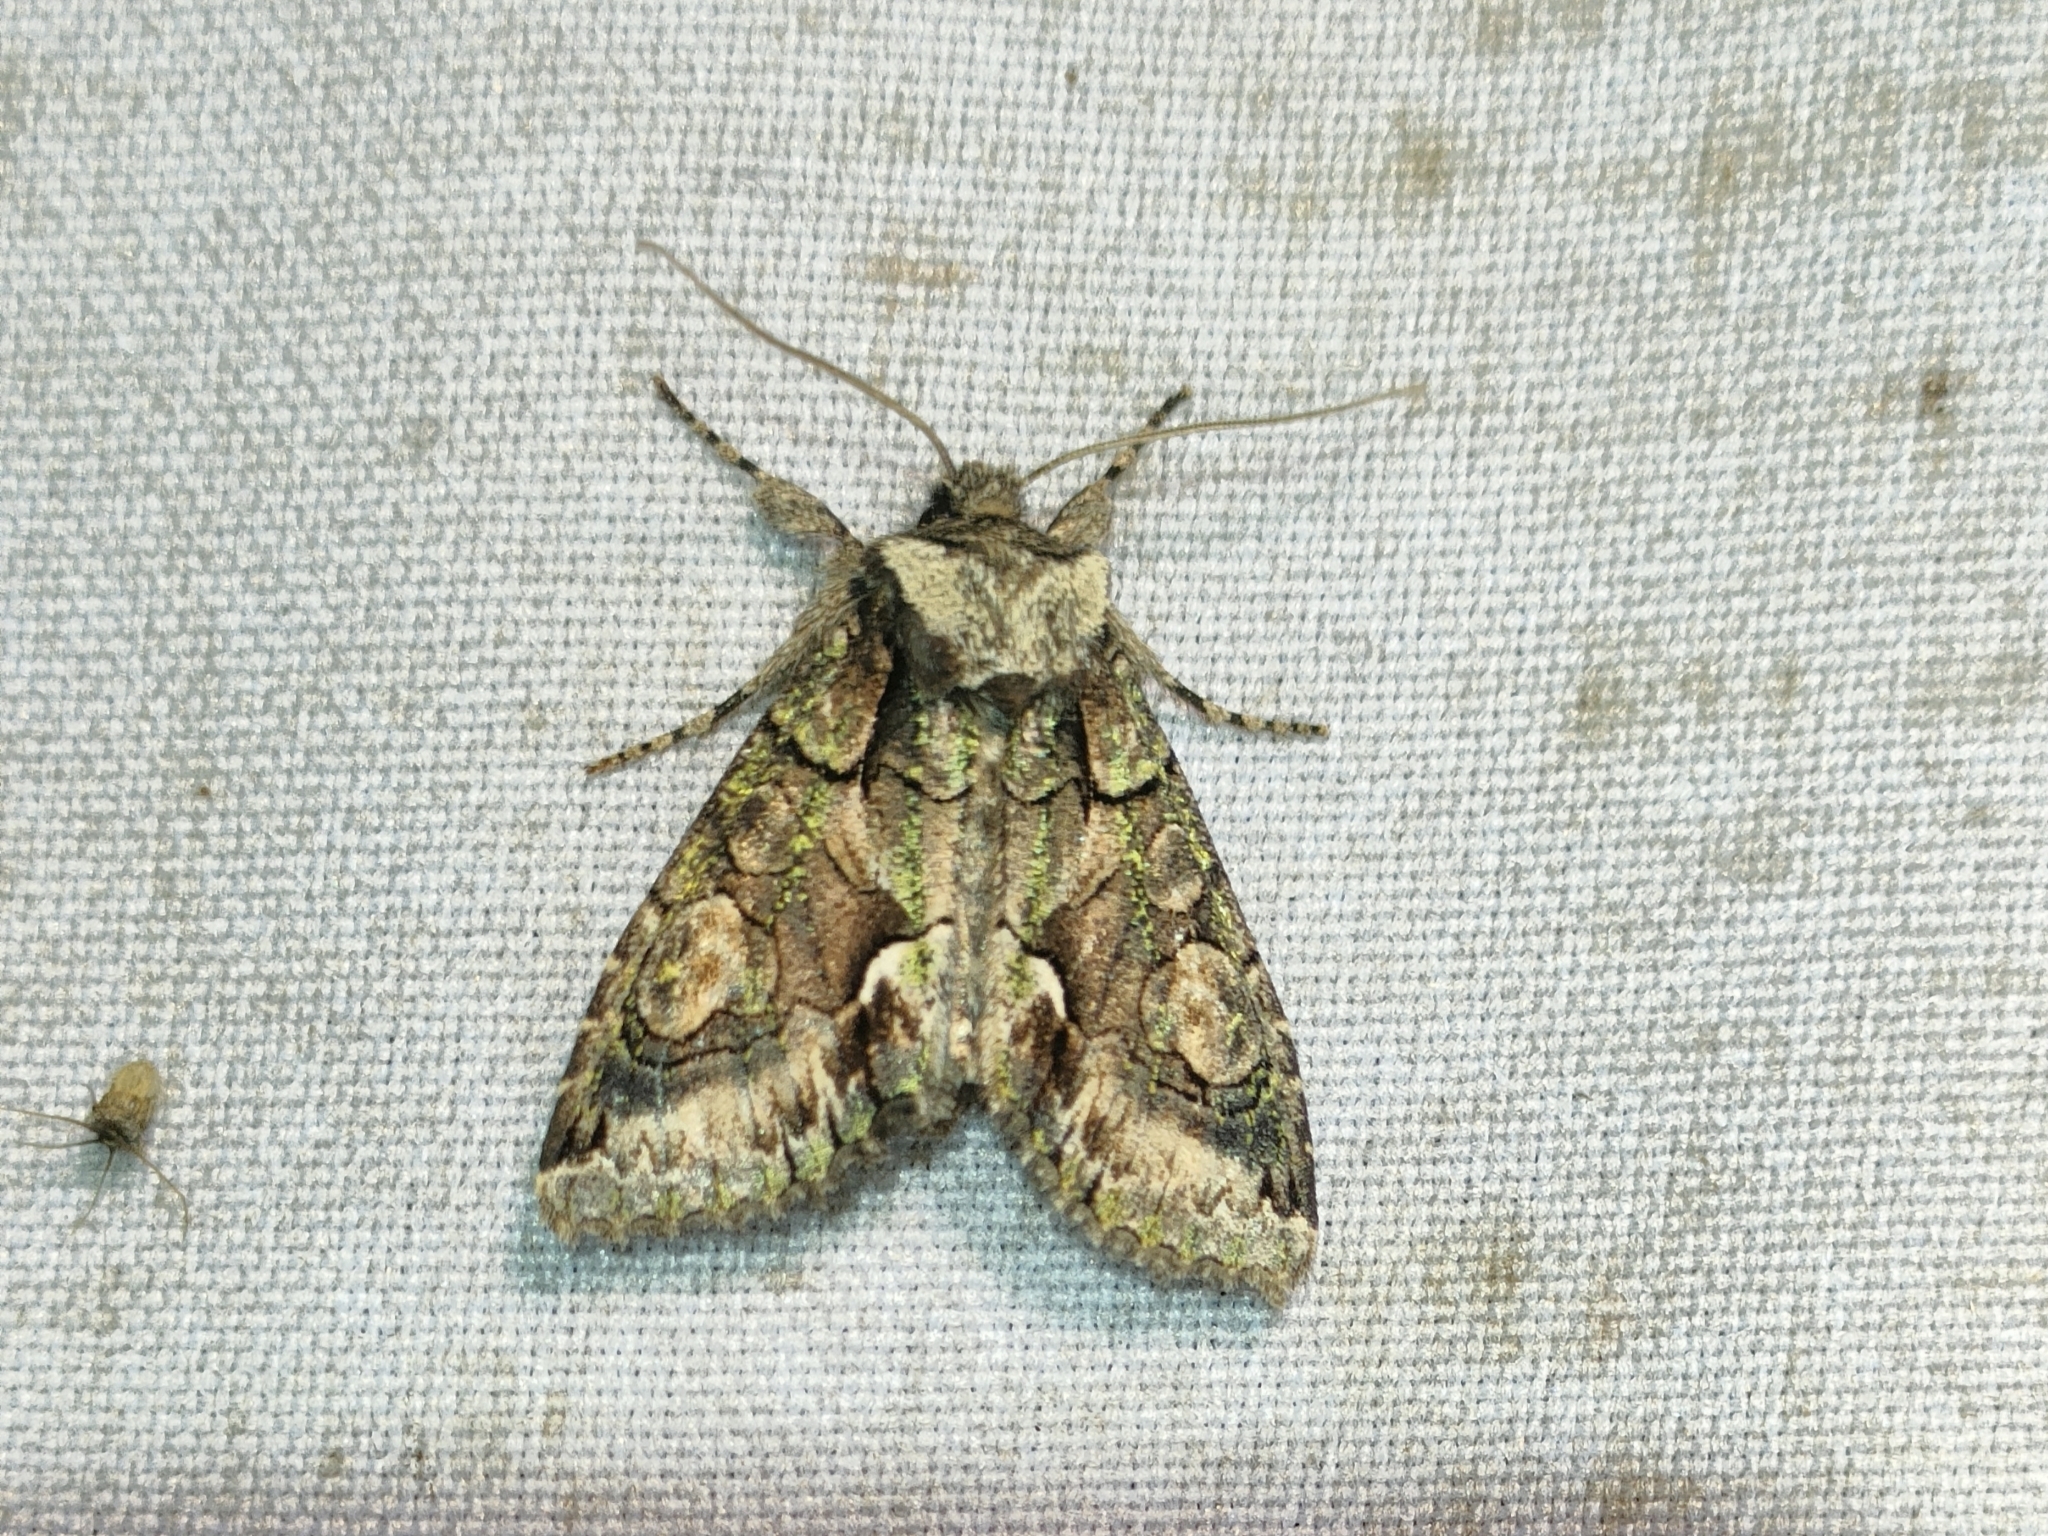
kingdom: Animalia
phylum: Arthropoda
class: Insecta
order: Lepidoptera
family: Noctuidae
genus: Allophyes
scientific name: Allophyes alfaroi
